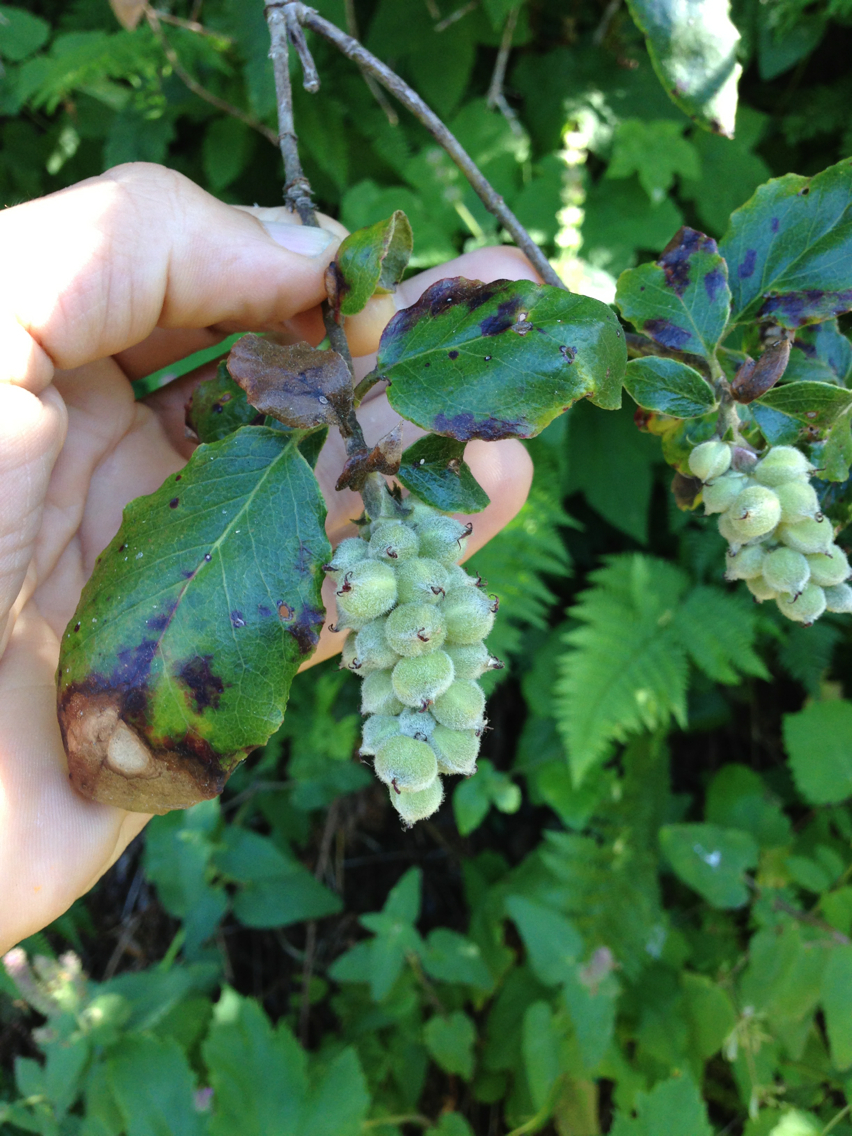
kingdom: Plantae
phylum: Tracheophyta
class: Magnoliopsida
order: Garryales
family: Garryaceae
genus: Garrya
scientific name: Garrya elliptica
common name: Silk-tassel
